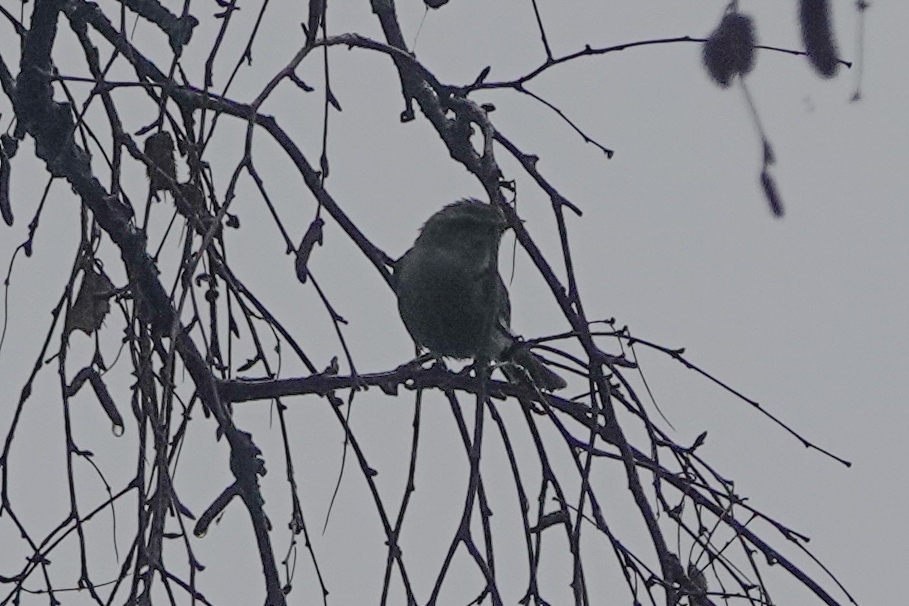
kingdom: Animalia
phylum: Chordata
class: Aves
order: Passeriformes
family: Phylloscopidae
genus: Phylloscopus
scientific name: Phylloscopus trochiloides
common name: Greenish warbler
